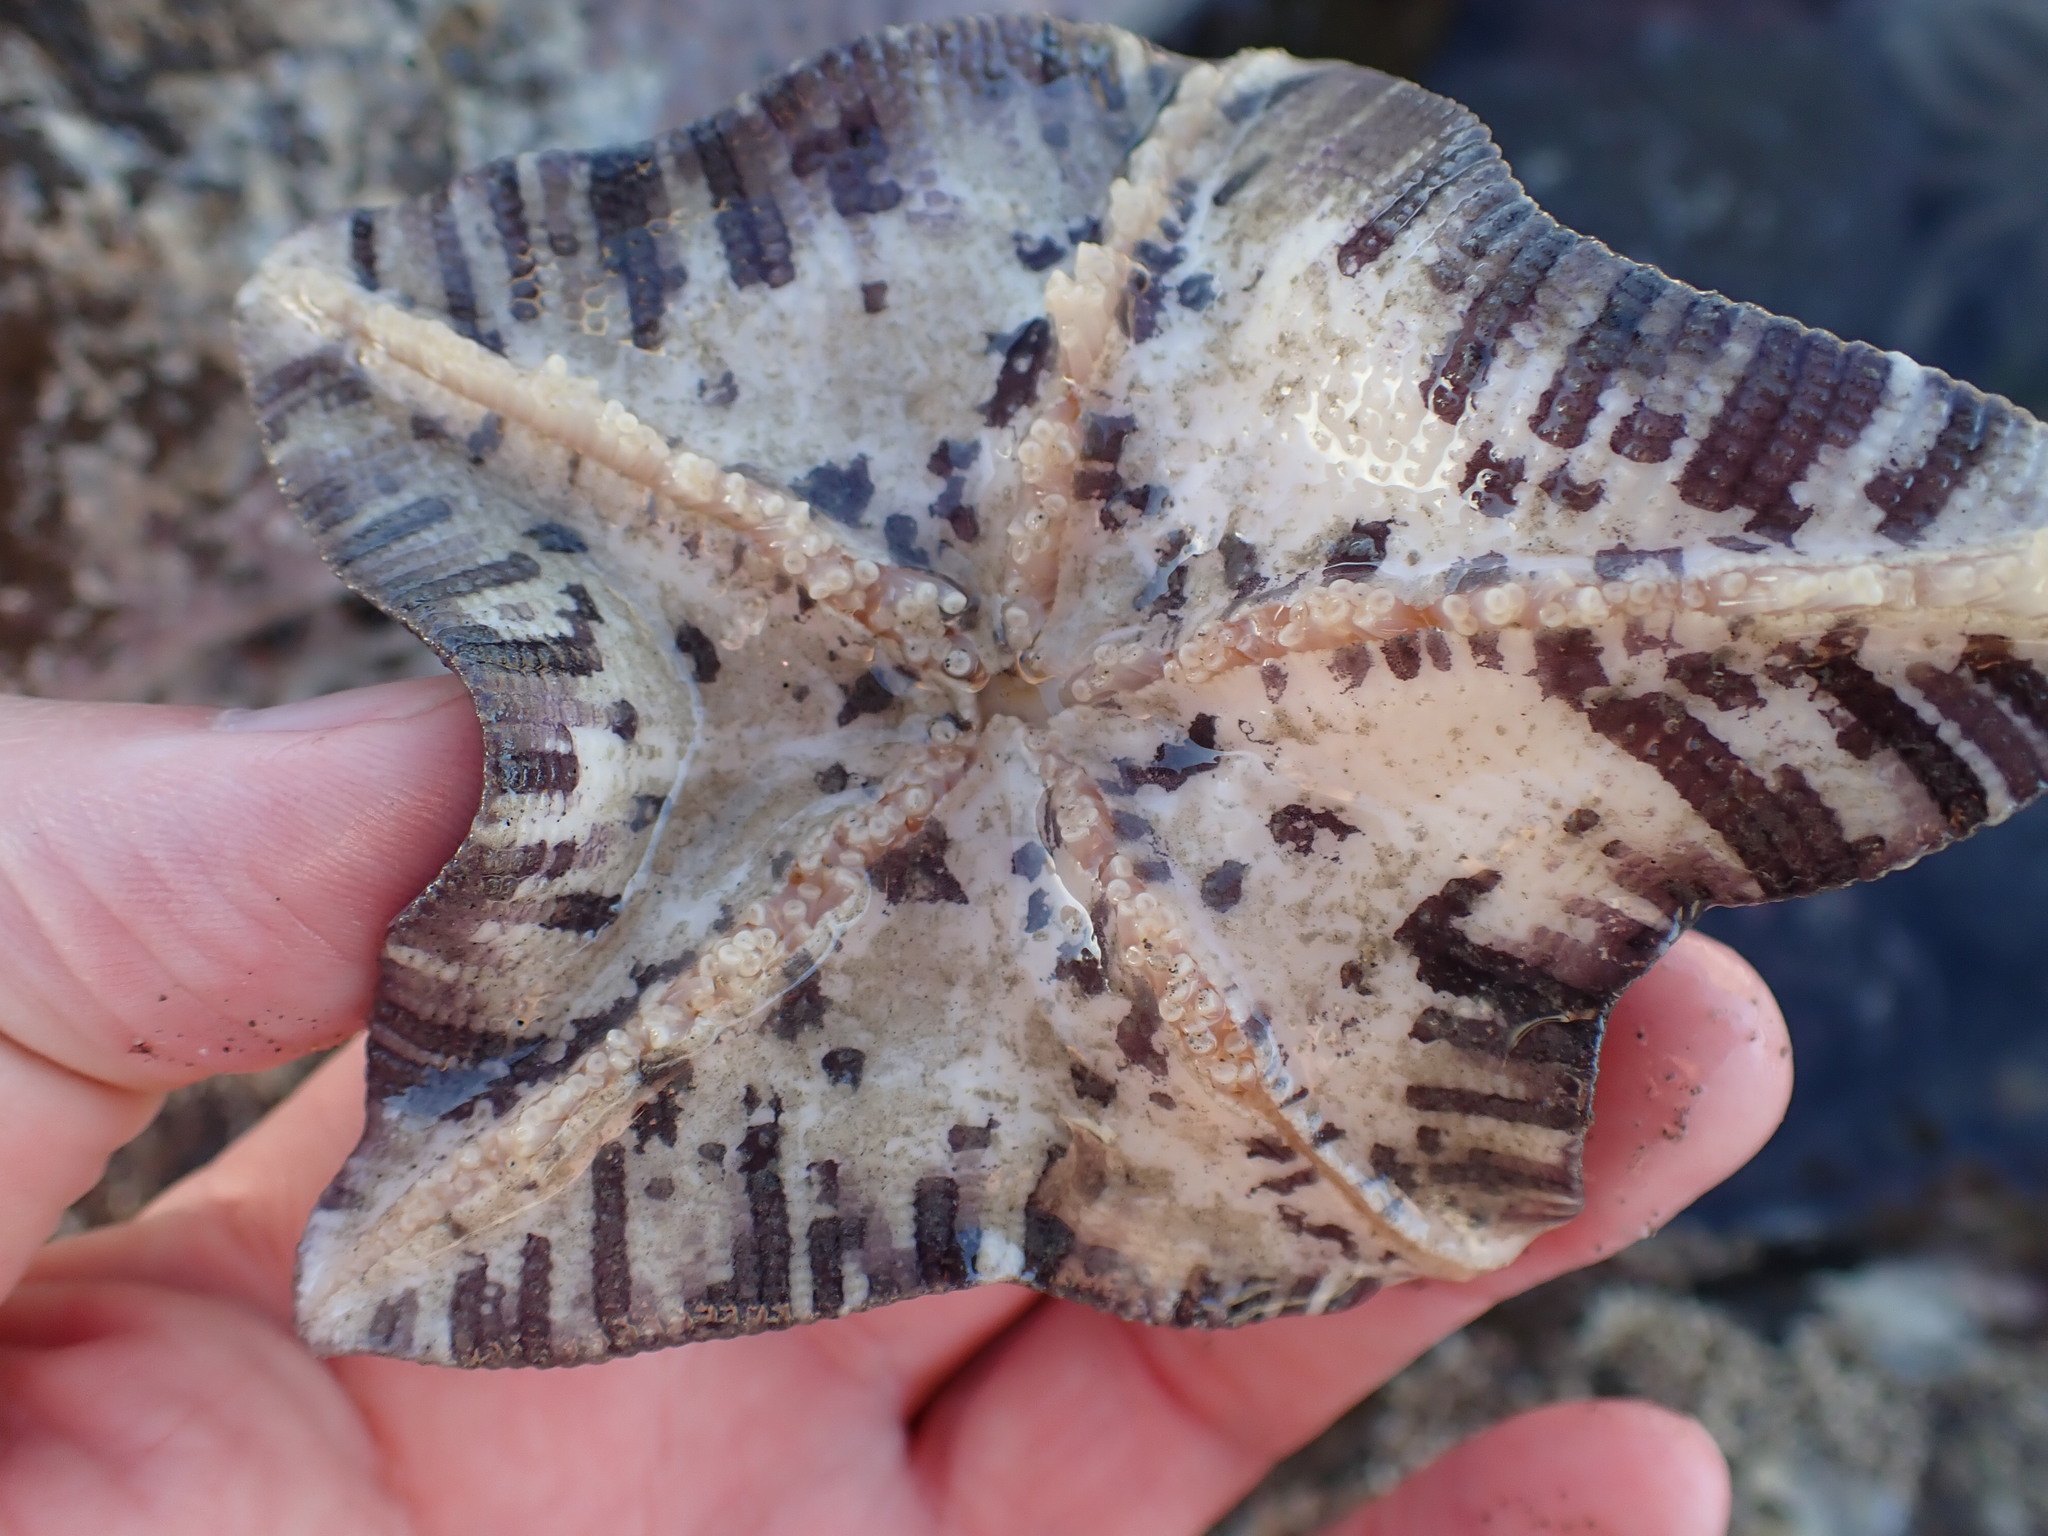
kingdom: Animalia
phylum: Echinodermata
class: Asteroidea
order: Valvatida
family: Asterinidae
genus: Stegnaster
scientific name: Stegnaster inflatus
